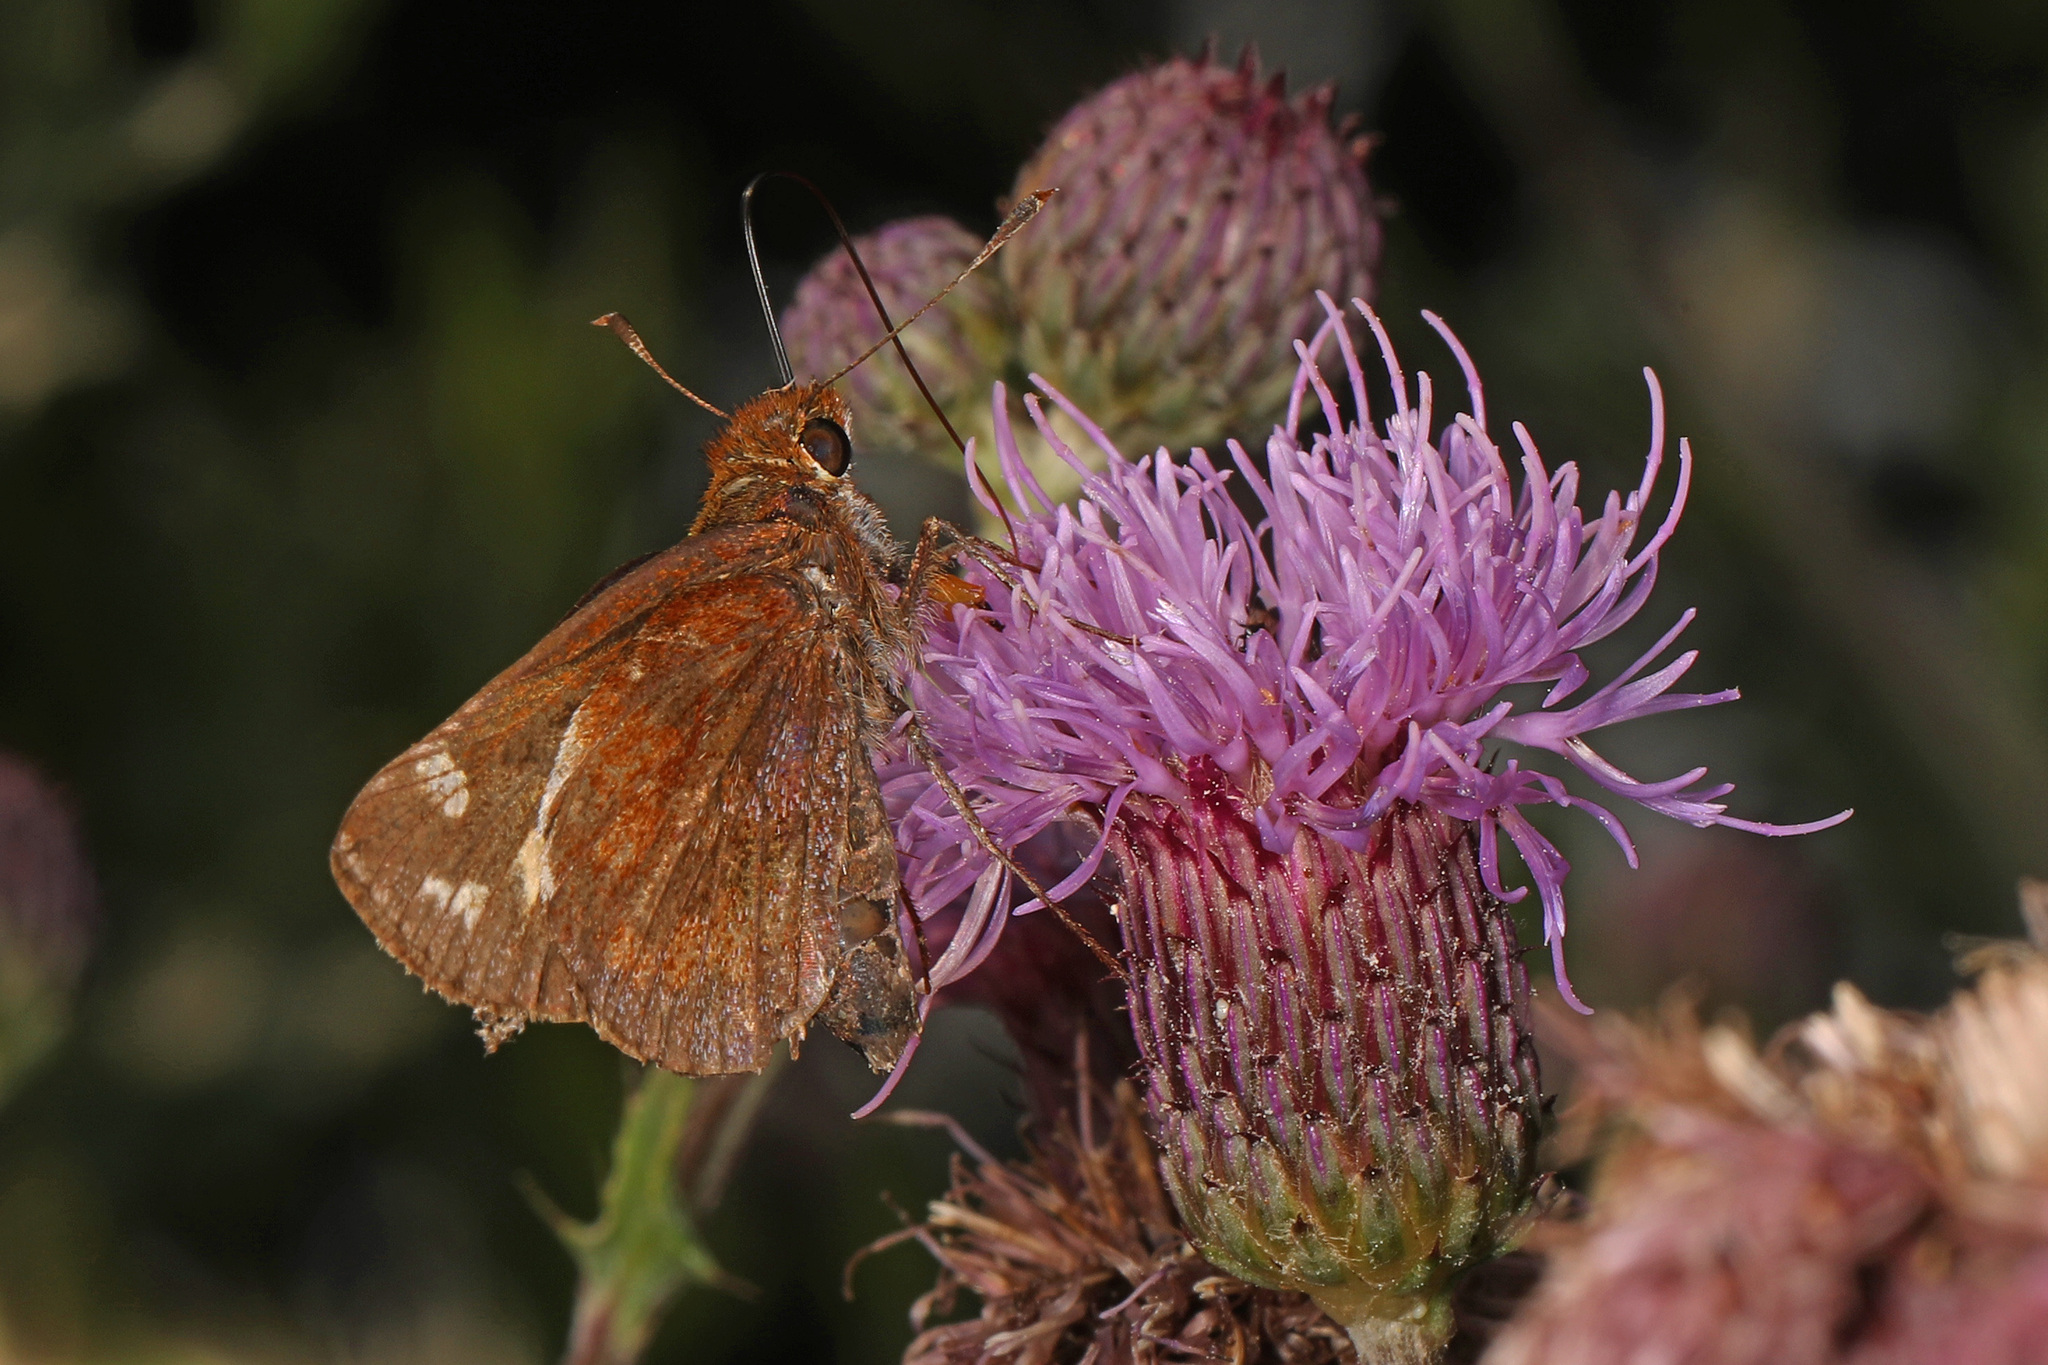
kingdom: Animalia
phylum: Arthropoda
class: Insecta
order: Lepidoptera
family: Hesperiidae
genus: Lon
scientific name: Lon zabulon
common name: Zabulon skipper
